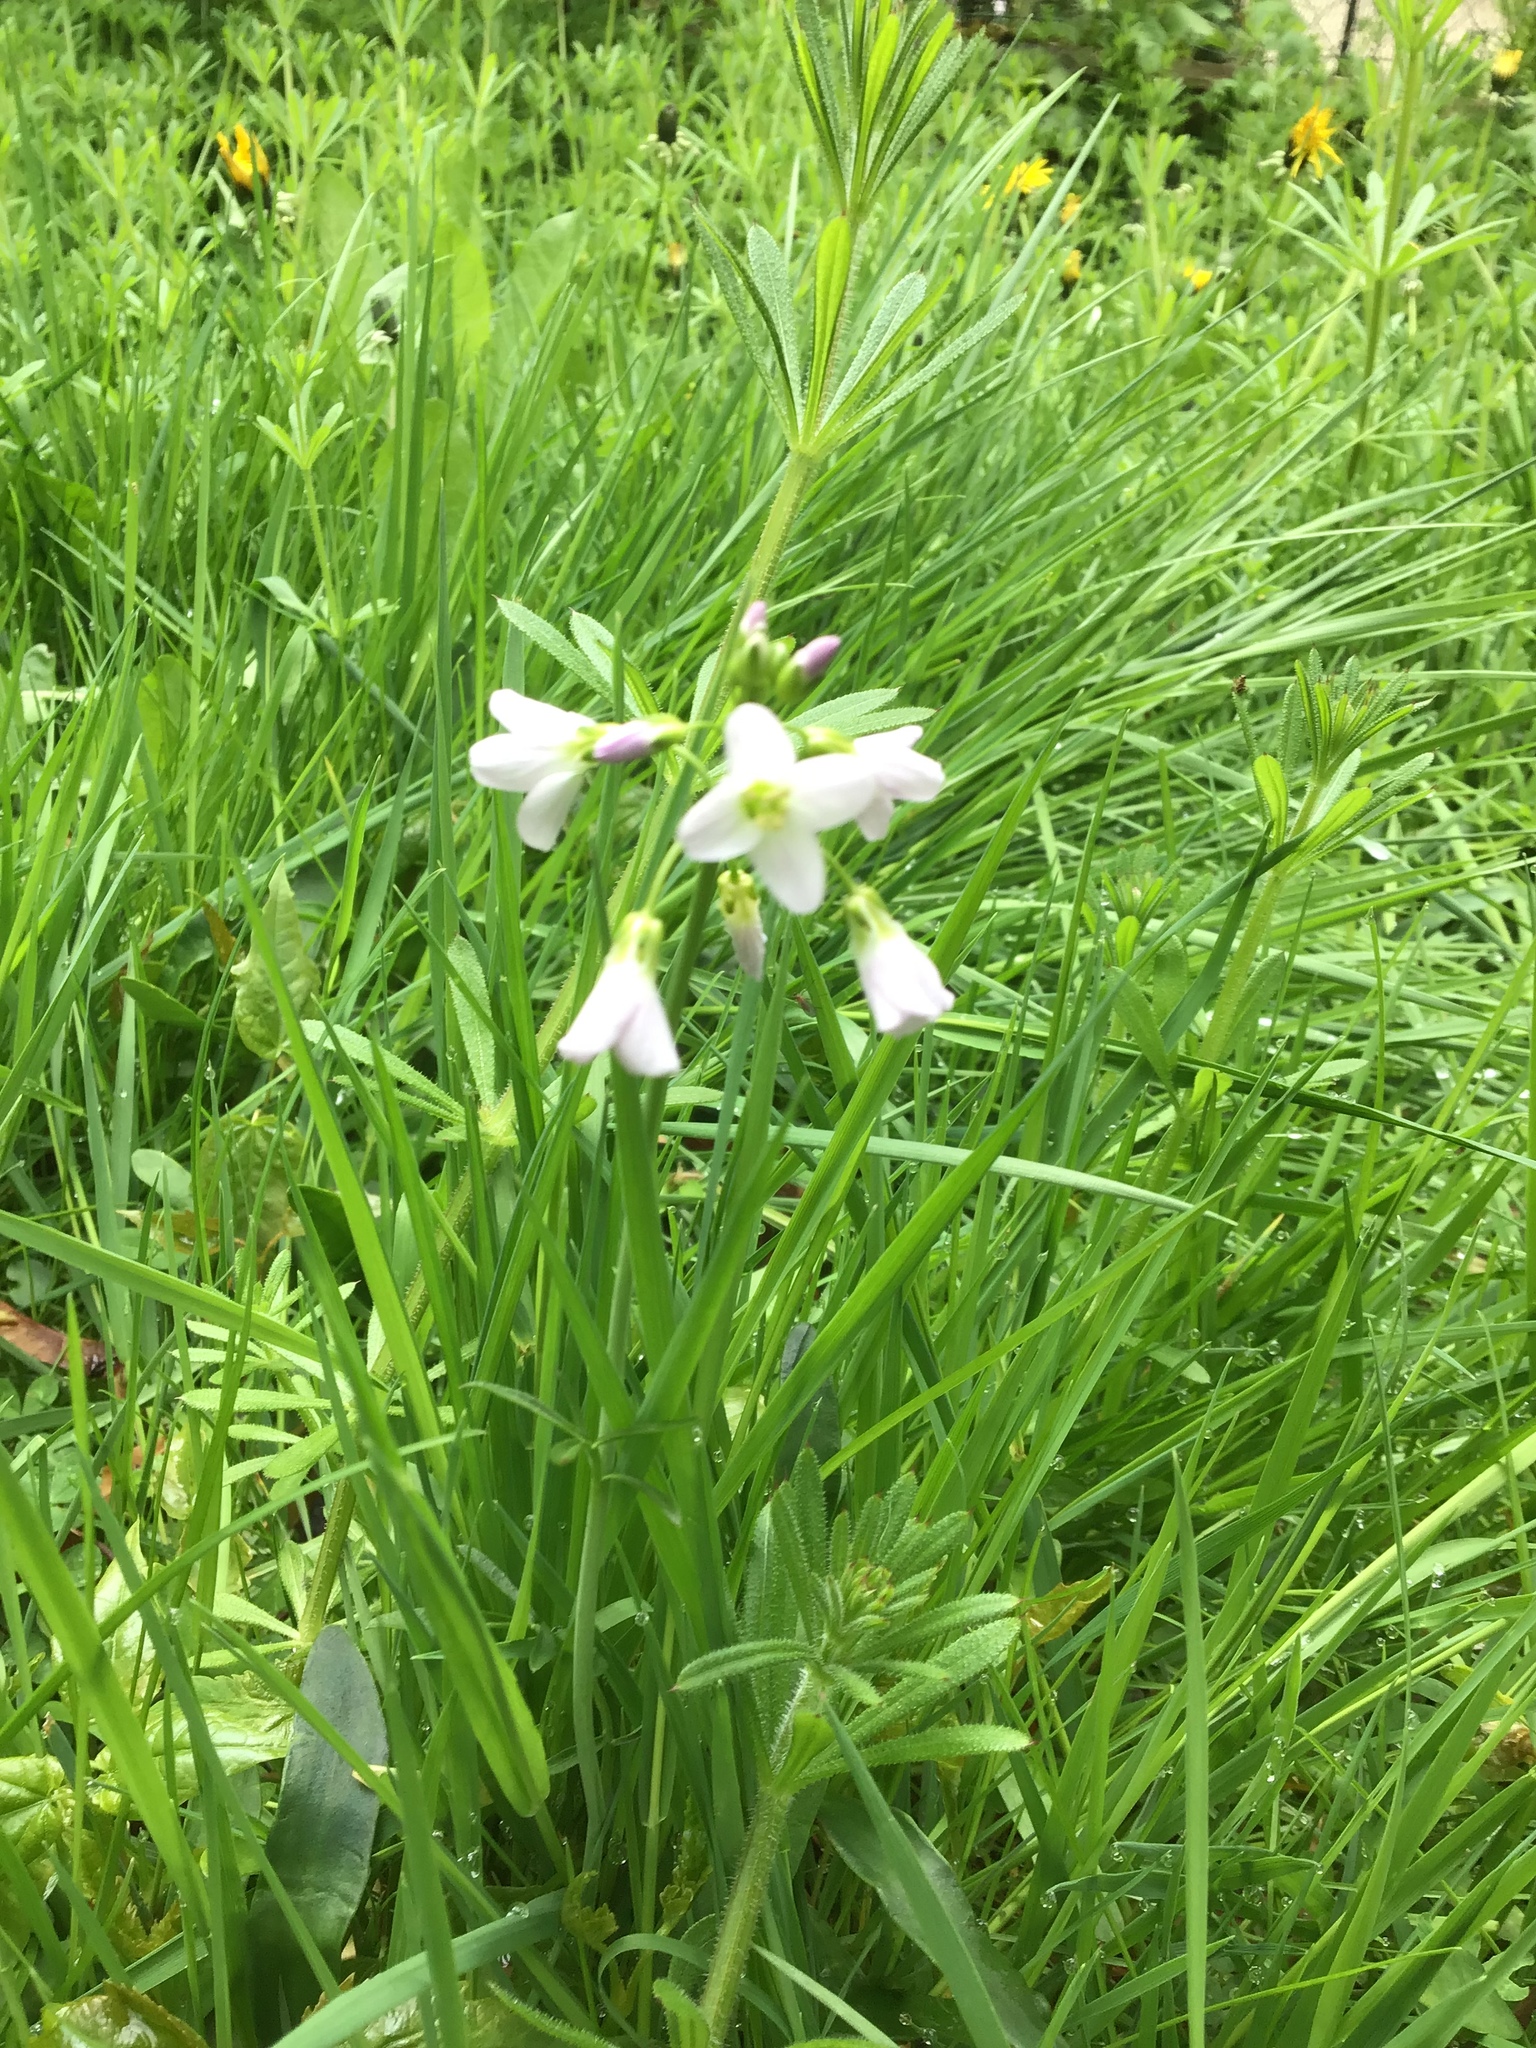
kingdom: Plantae
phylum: Tracheophyta
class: Magnoliopsida
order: Brassicales
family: Brassicaceae
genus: Cardamine
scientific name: Cardamine pratensis
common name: Cuckoo flower
